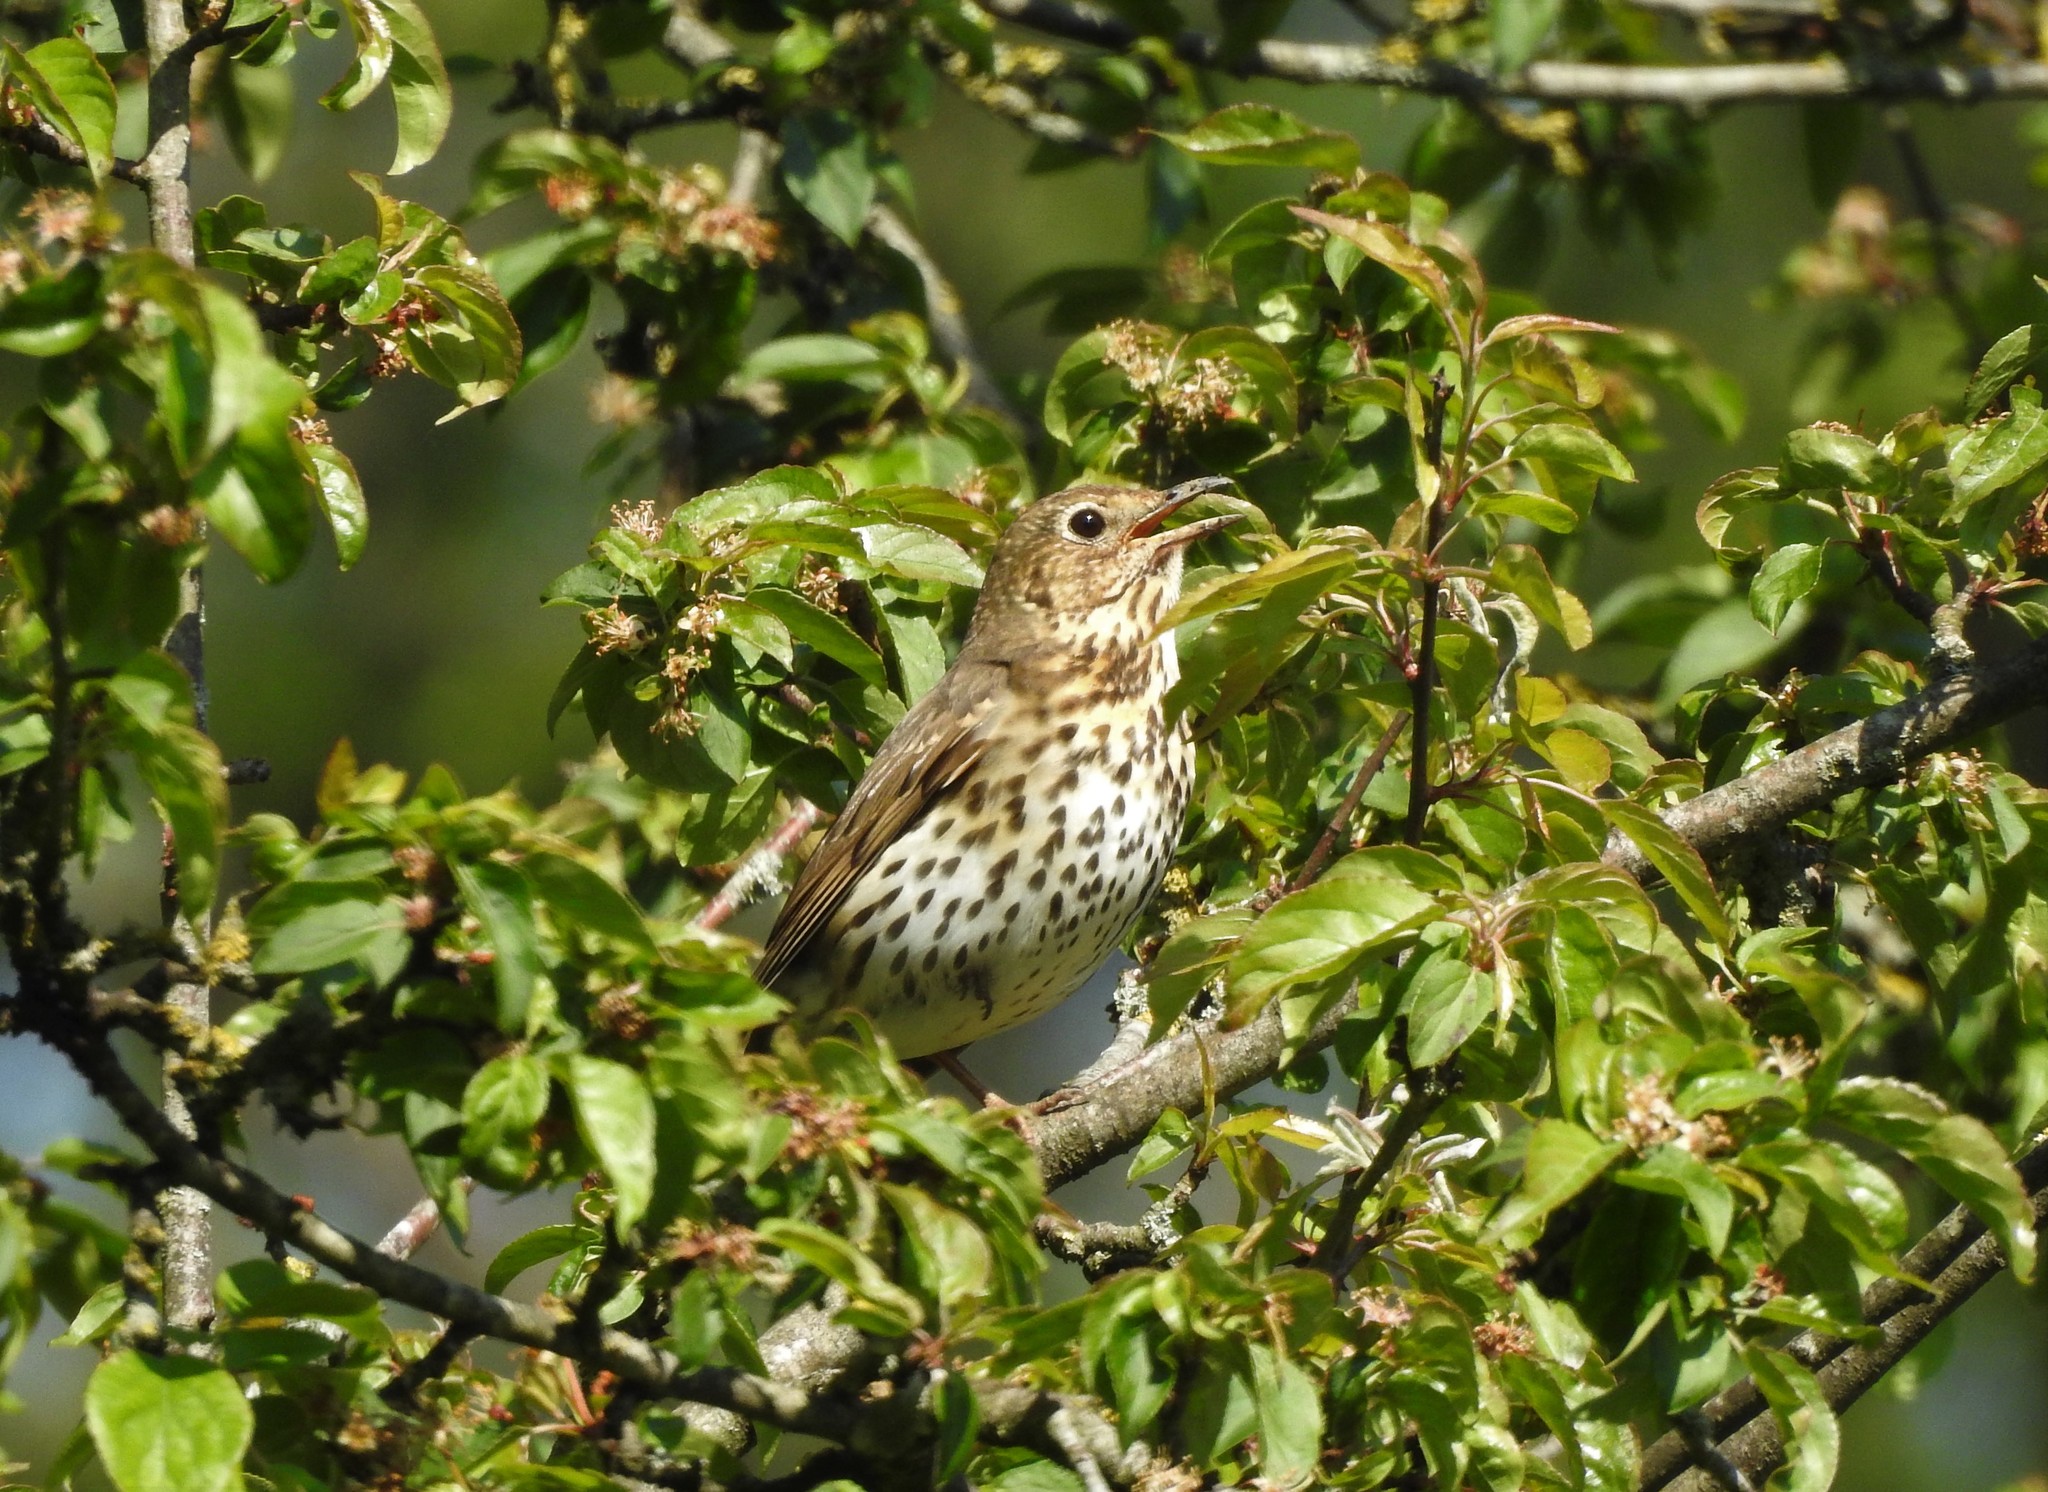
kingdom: Animalia
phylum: Chordata
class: Aves
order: Passeriformes
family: Turdidae
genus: Turdus
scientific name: Turdus philomelos
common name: Song thrush
